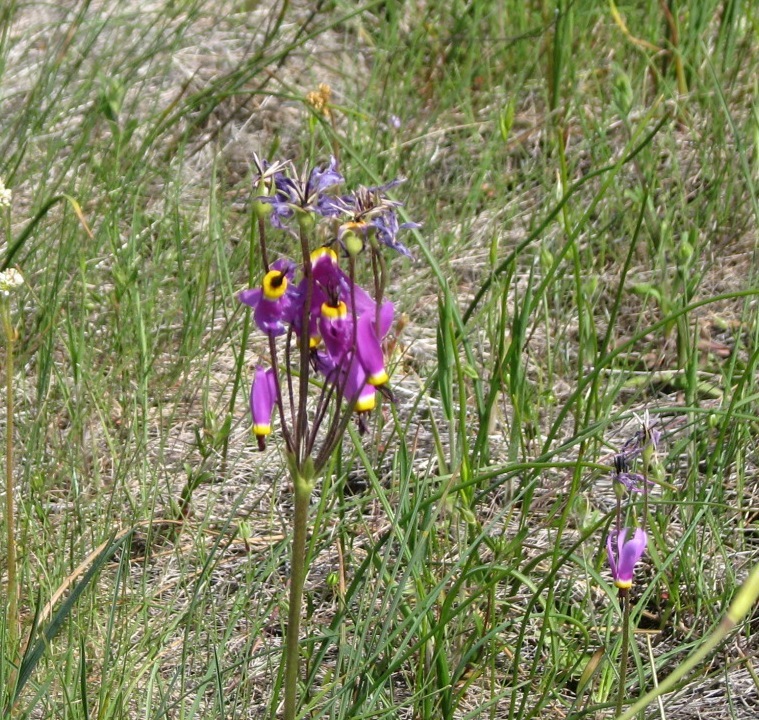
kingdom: Plantae
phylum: Tracheophyta
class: Magnoliopsida
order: Ericales
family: Primulaceae
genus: Dodecatheon
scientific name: Dodecatheon poeticum
